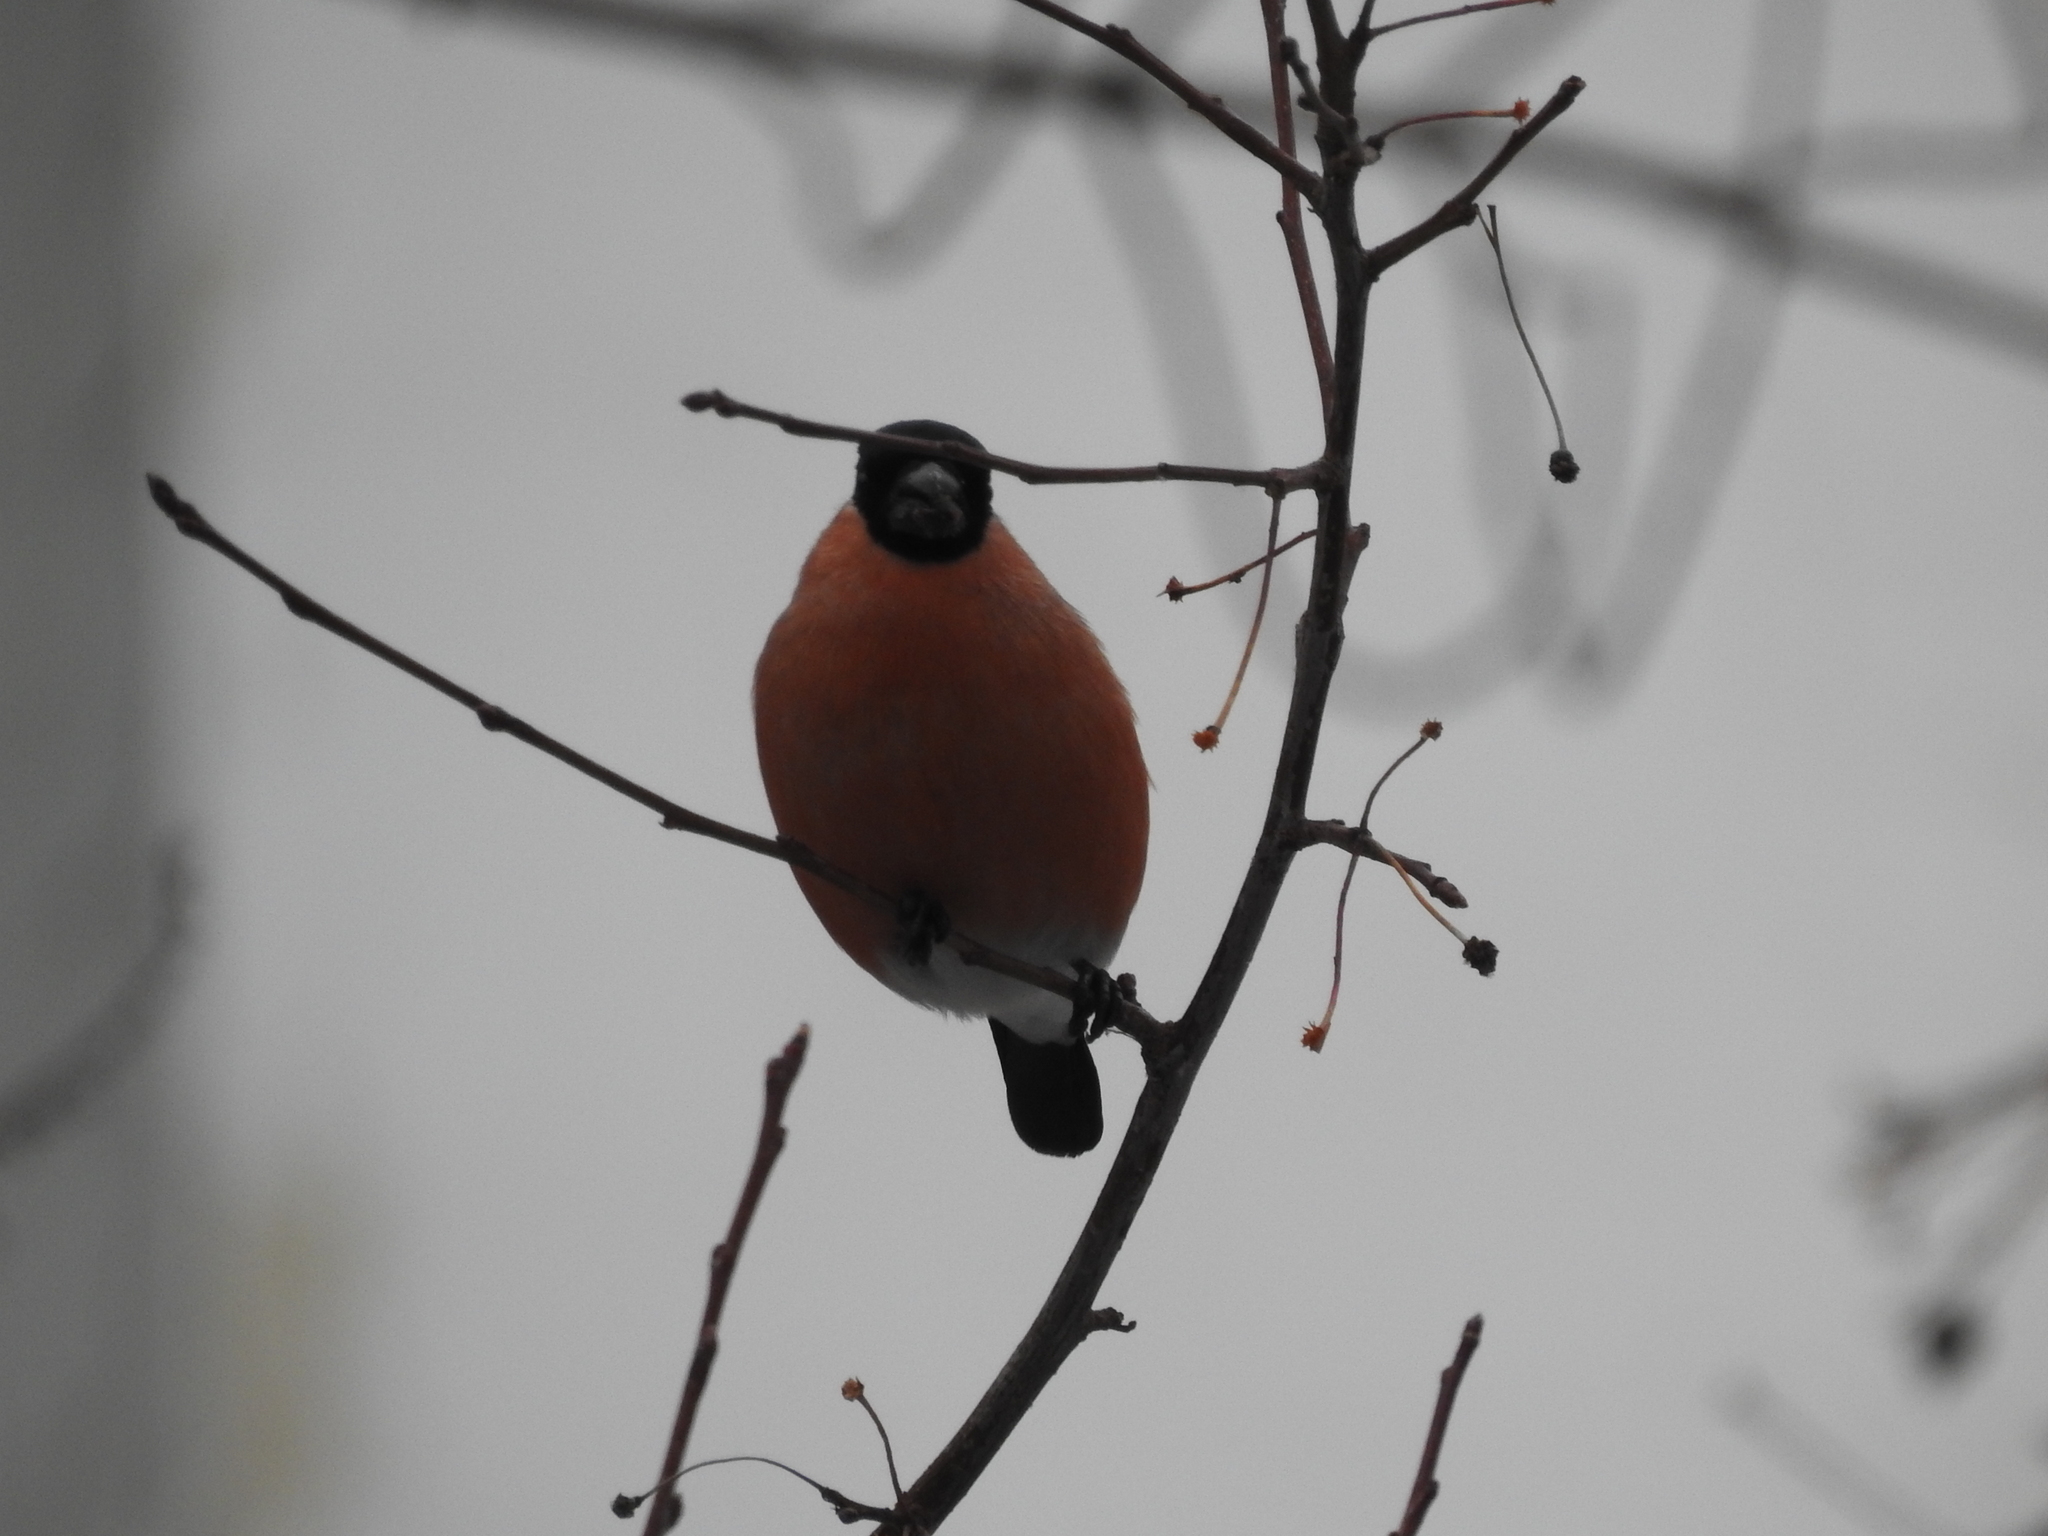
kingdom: Animalia
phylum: Chordata
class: Aves
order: Passeriformes
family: Fringillidae
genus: Pyrrhula
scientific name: Pyrrhula pyrrhula
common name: Eurasian bullfinch
